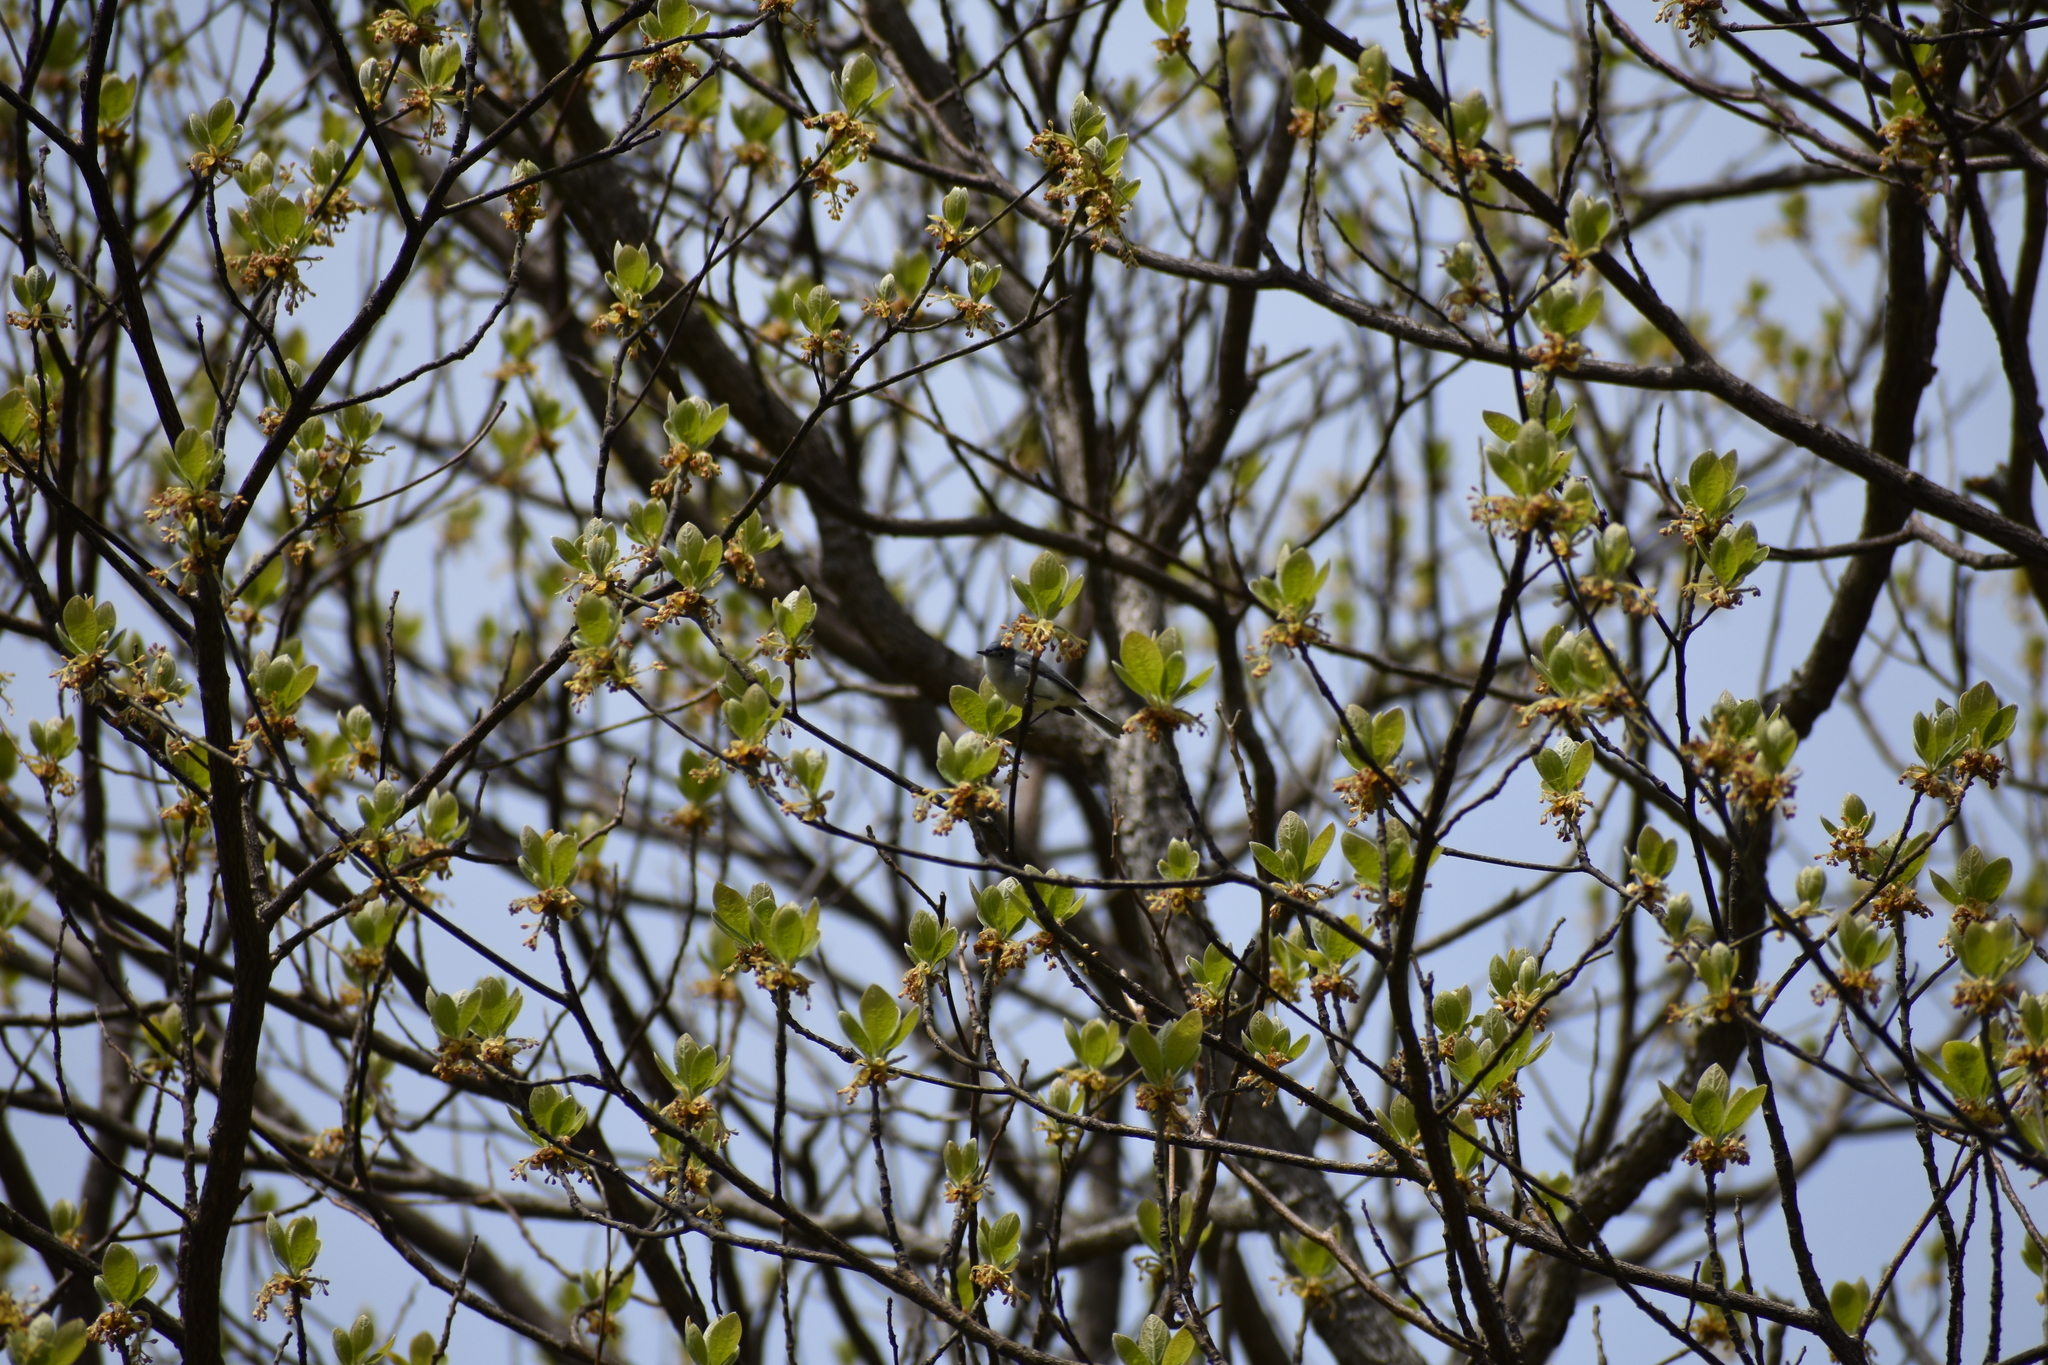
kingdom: Animalia
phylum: Chordata
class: Aves
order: Passeriformes
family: Polioptilidae
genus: Polioptila
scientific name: Polioptila caerulea
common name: Blue-gray gnatcatcher
